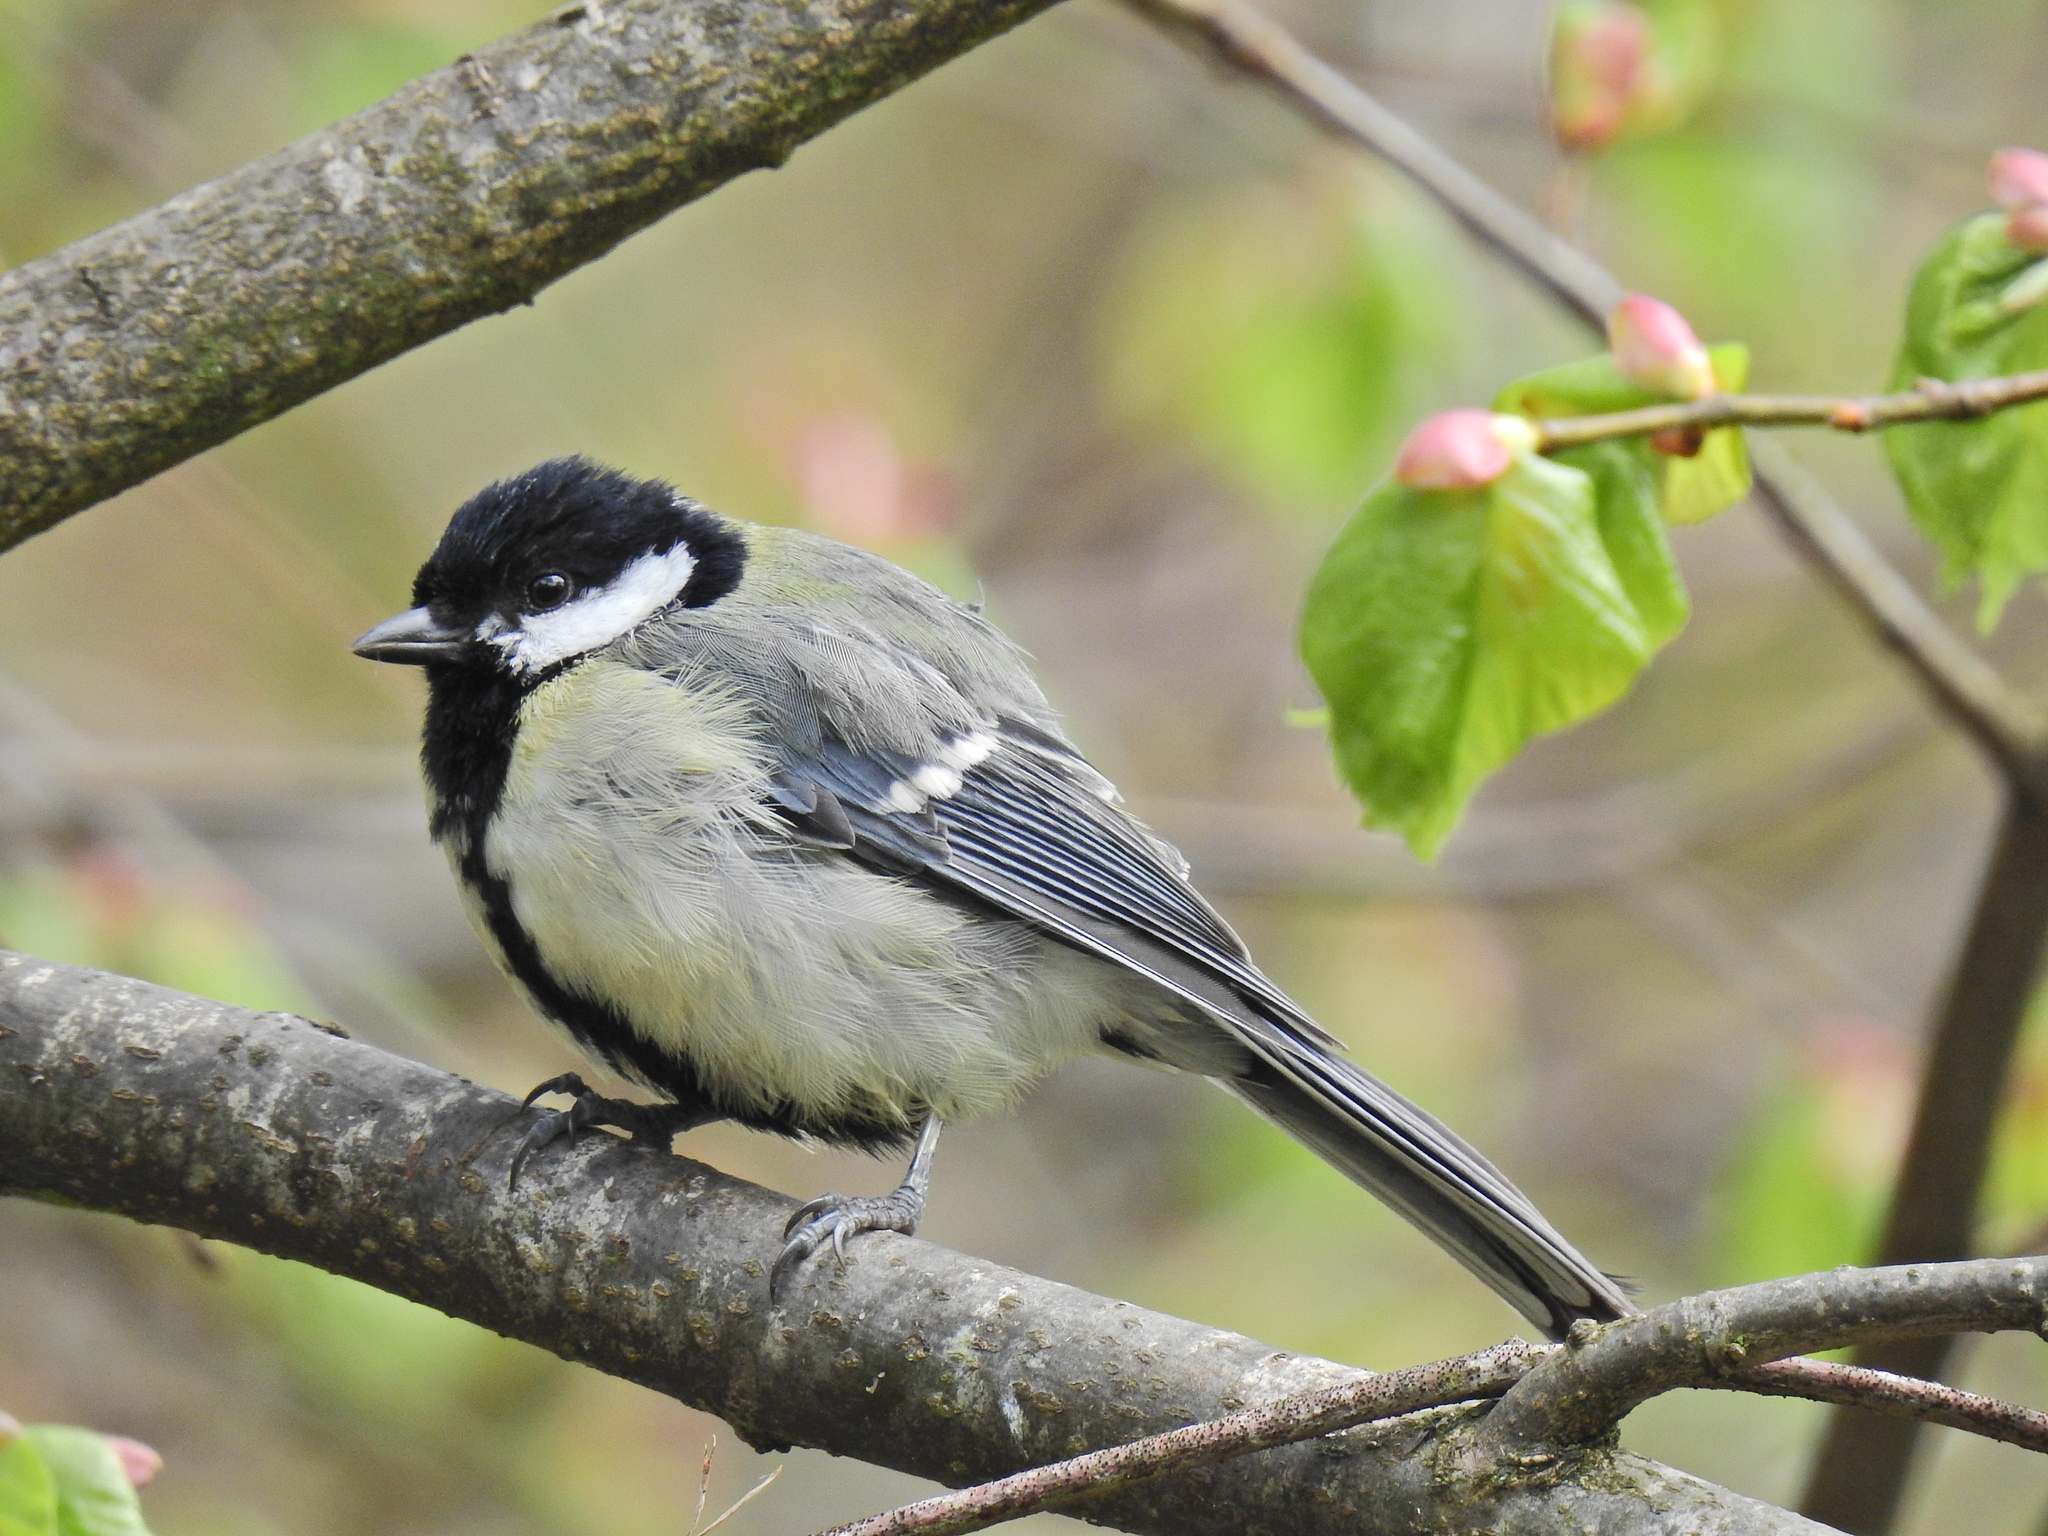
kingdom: Animalia
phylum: Chordata
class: Aves
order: Passeriformes
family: Paridae
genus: Parus
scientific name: Parus major
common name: Great tit
